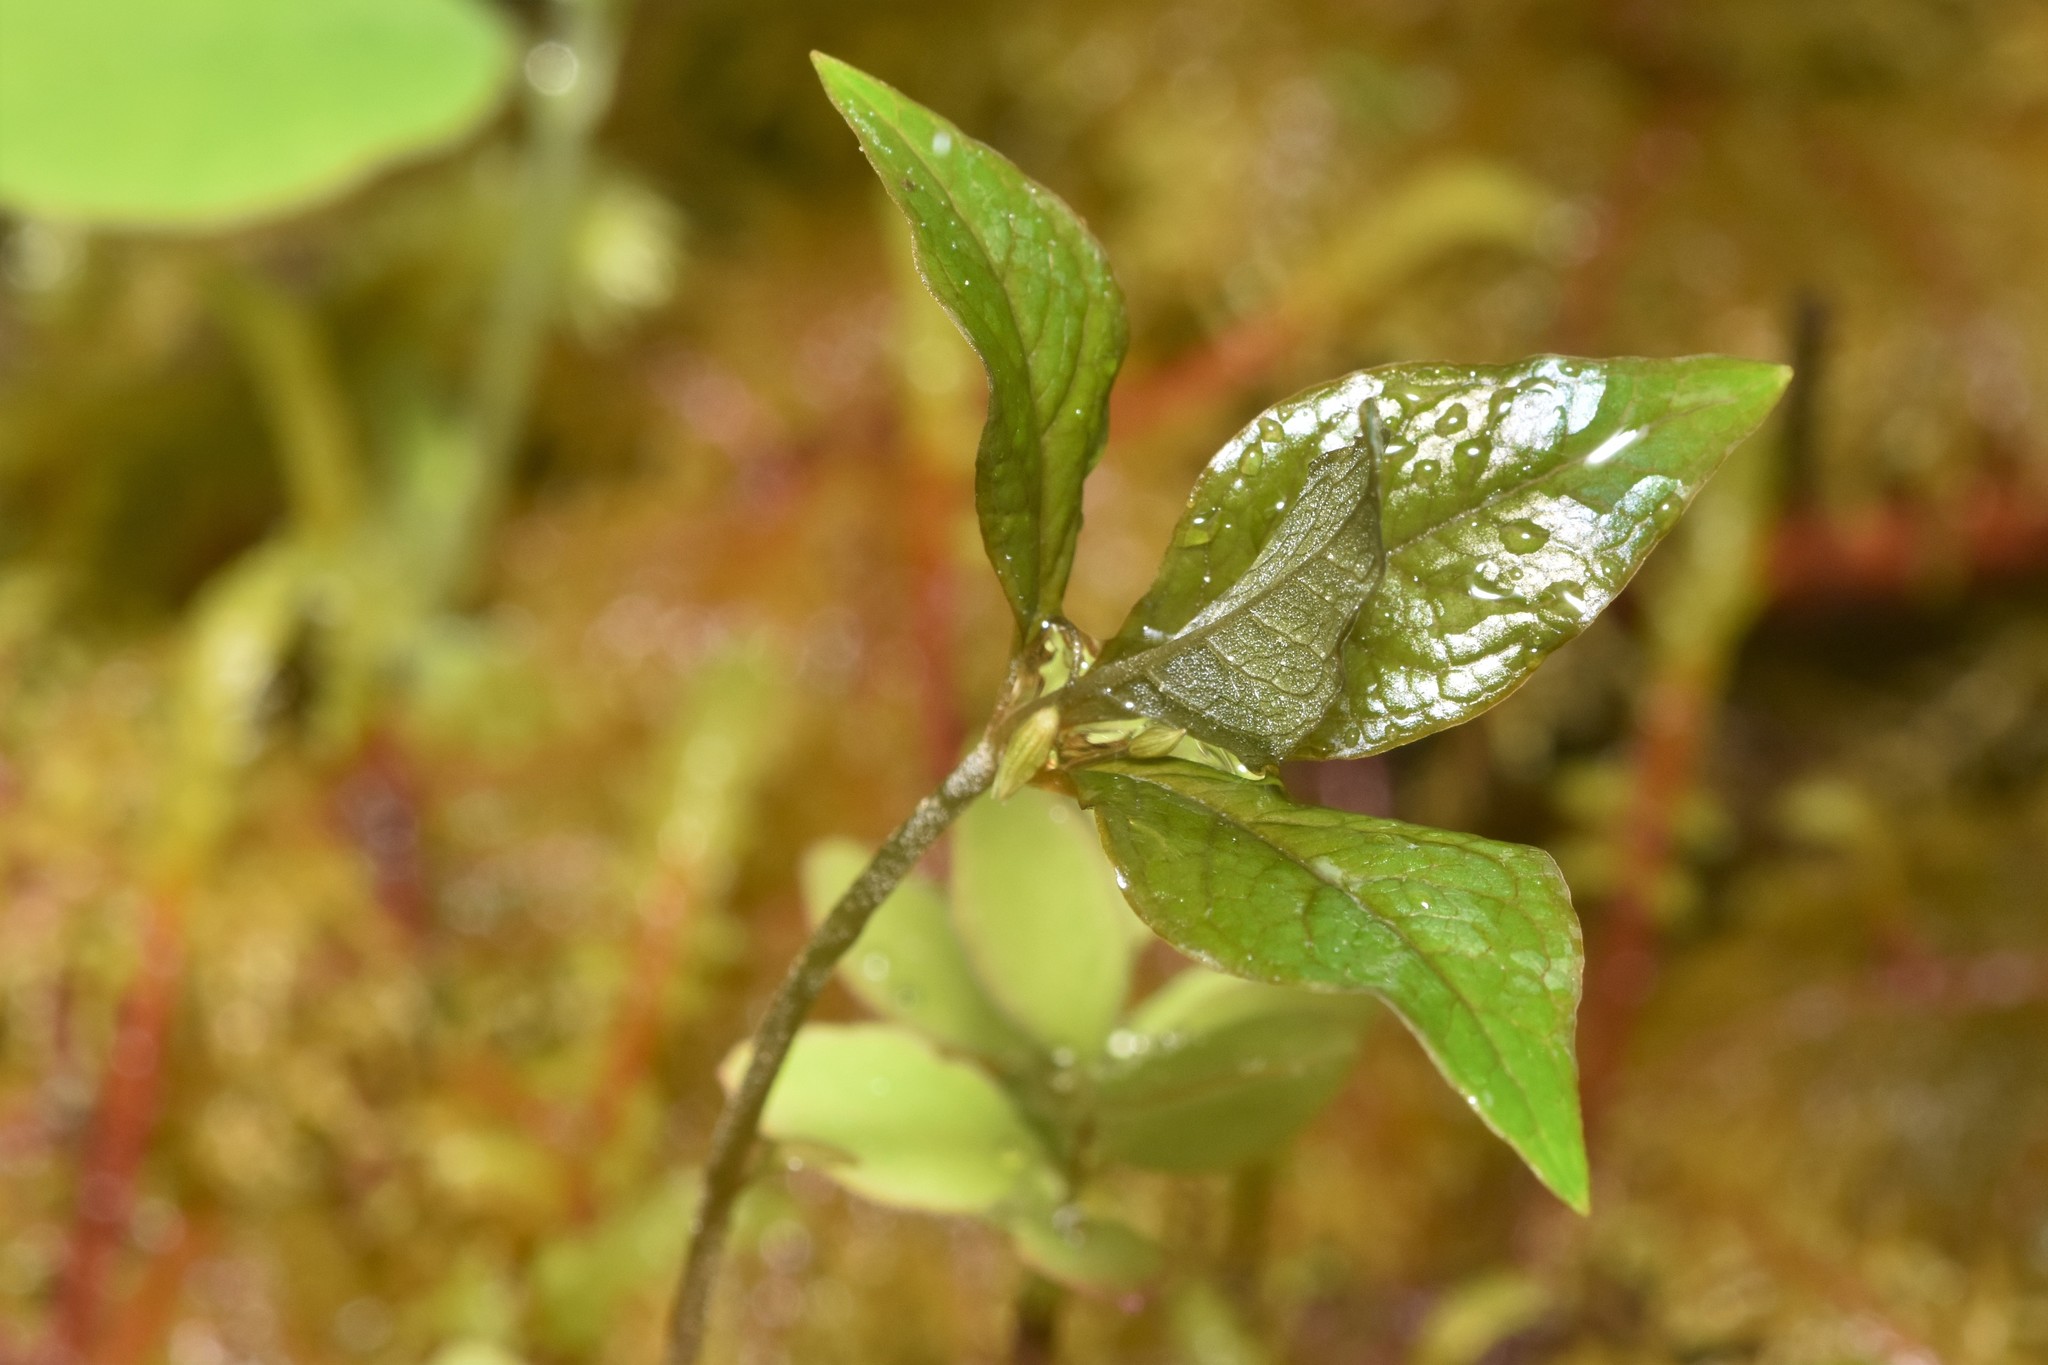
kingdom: Plantae
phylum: Tracheophyta
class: Magnoliopsida
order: Ericales
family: Primulaceae
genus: Lysimachia
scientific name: Lysimachia latifolia
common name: Pacific starflower
